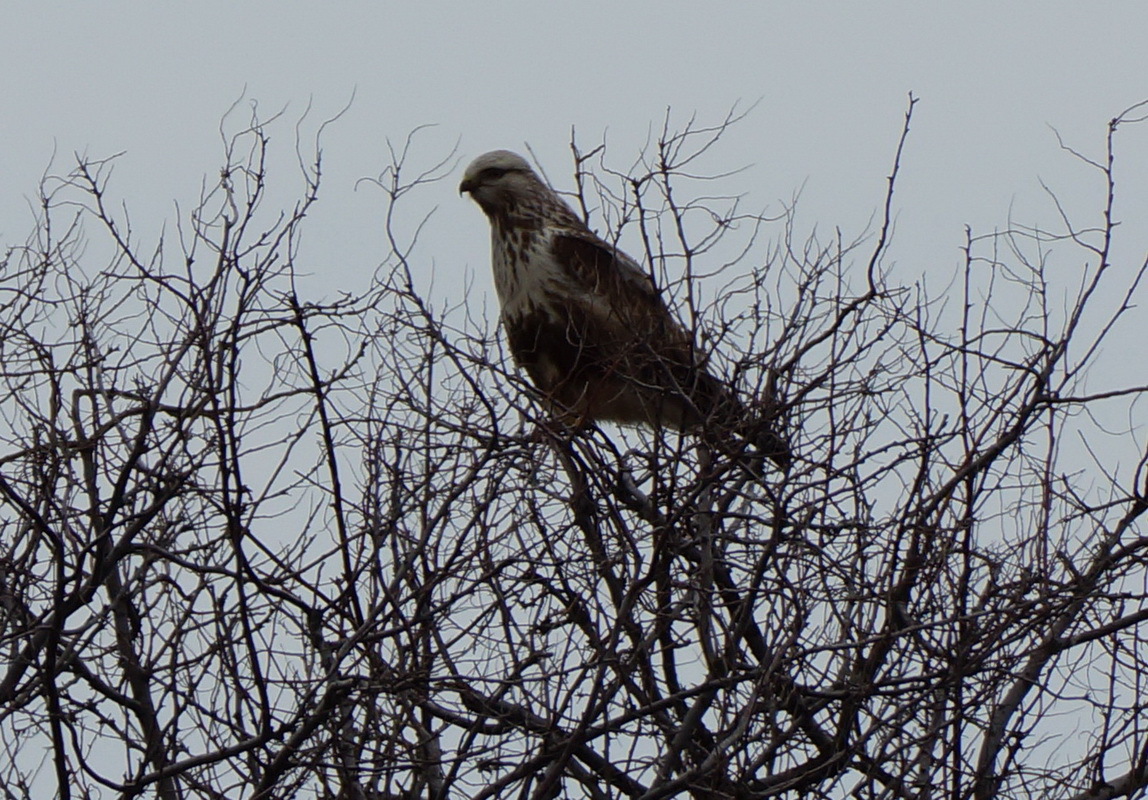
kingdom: Animalia
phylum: Chordata
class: Aves
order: Accipitriformes
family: Accipitridae
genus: Buteo
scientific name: Buteo lagopus
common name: Rough-legged buzzard
